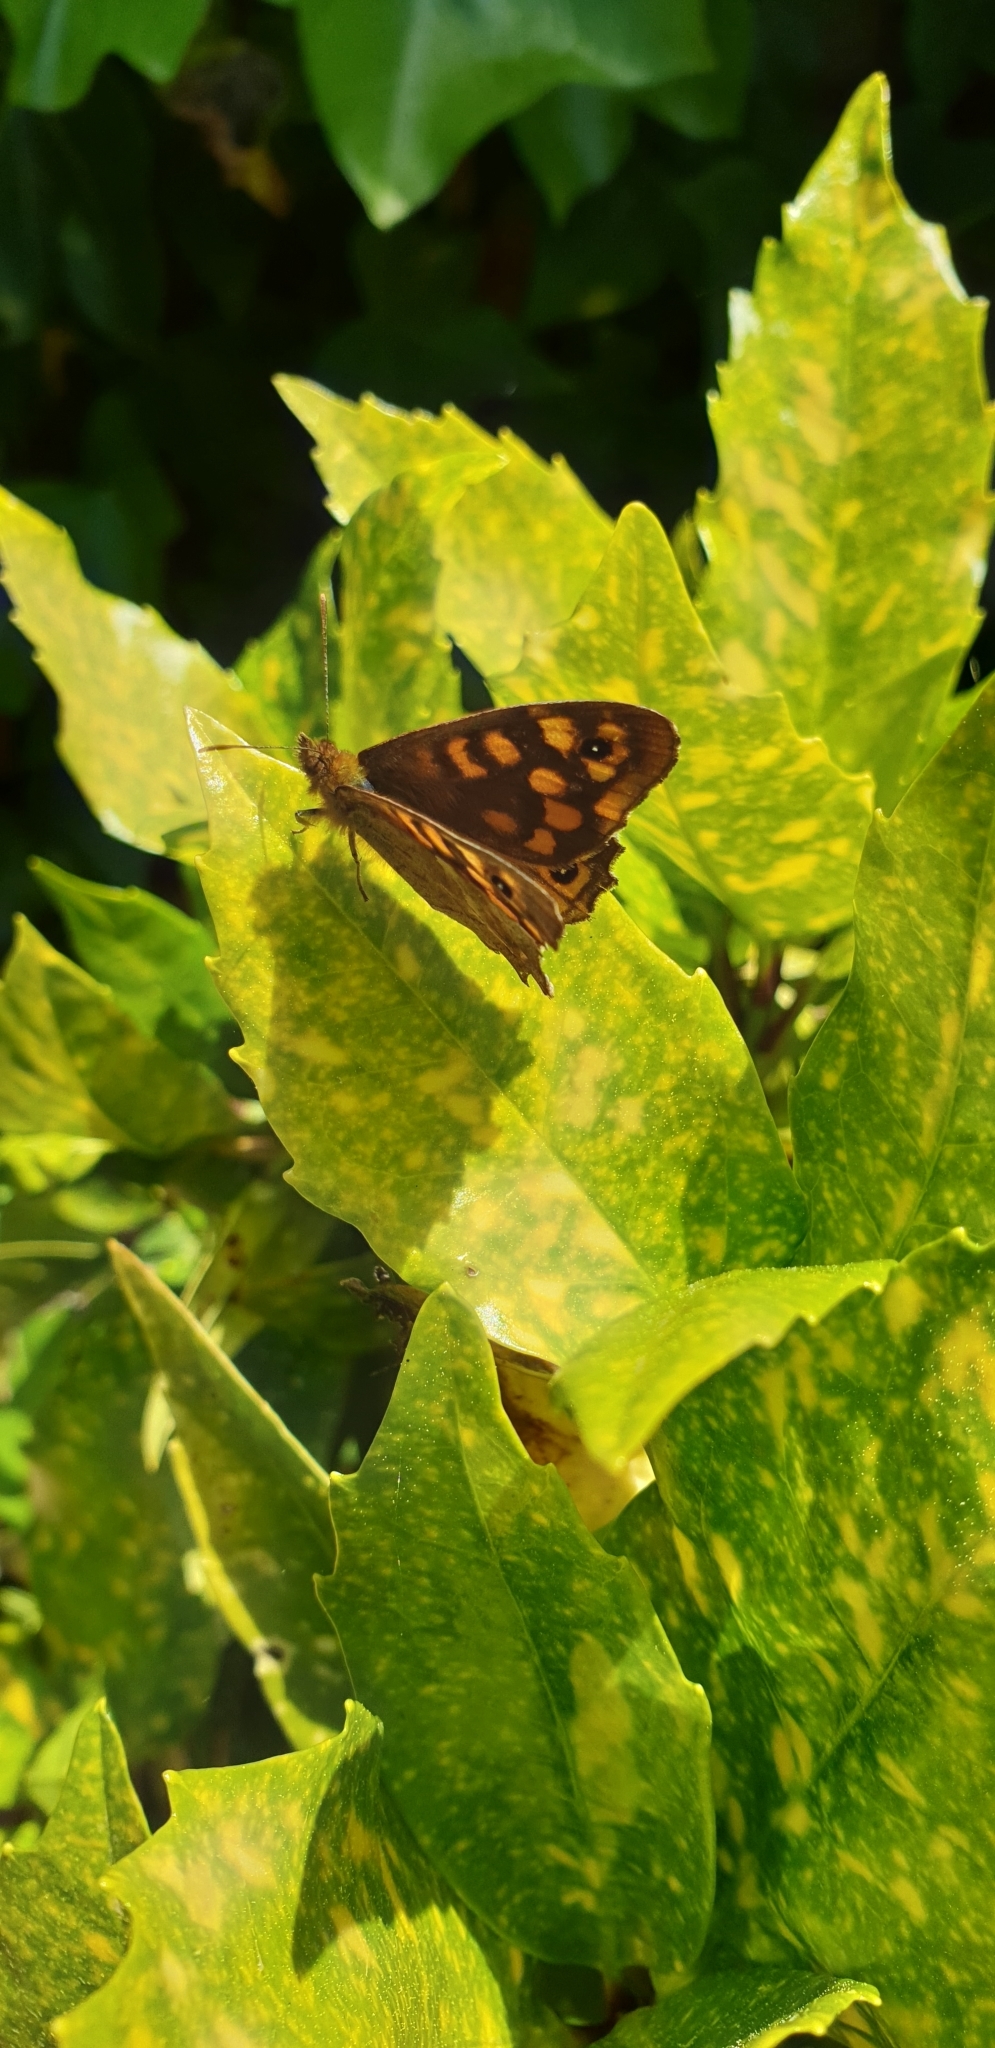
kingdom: Animalia
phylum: Arthropoda
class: Insecta
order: Lepidoptera
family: Nymphalidae
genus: Pararge
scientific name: Pararge aegeria
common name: Speckled wood
